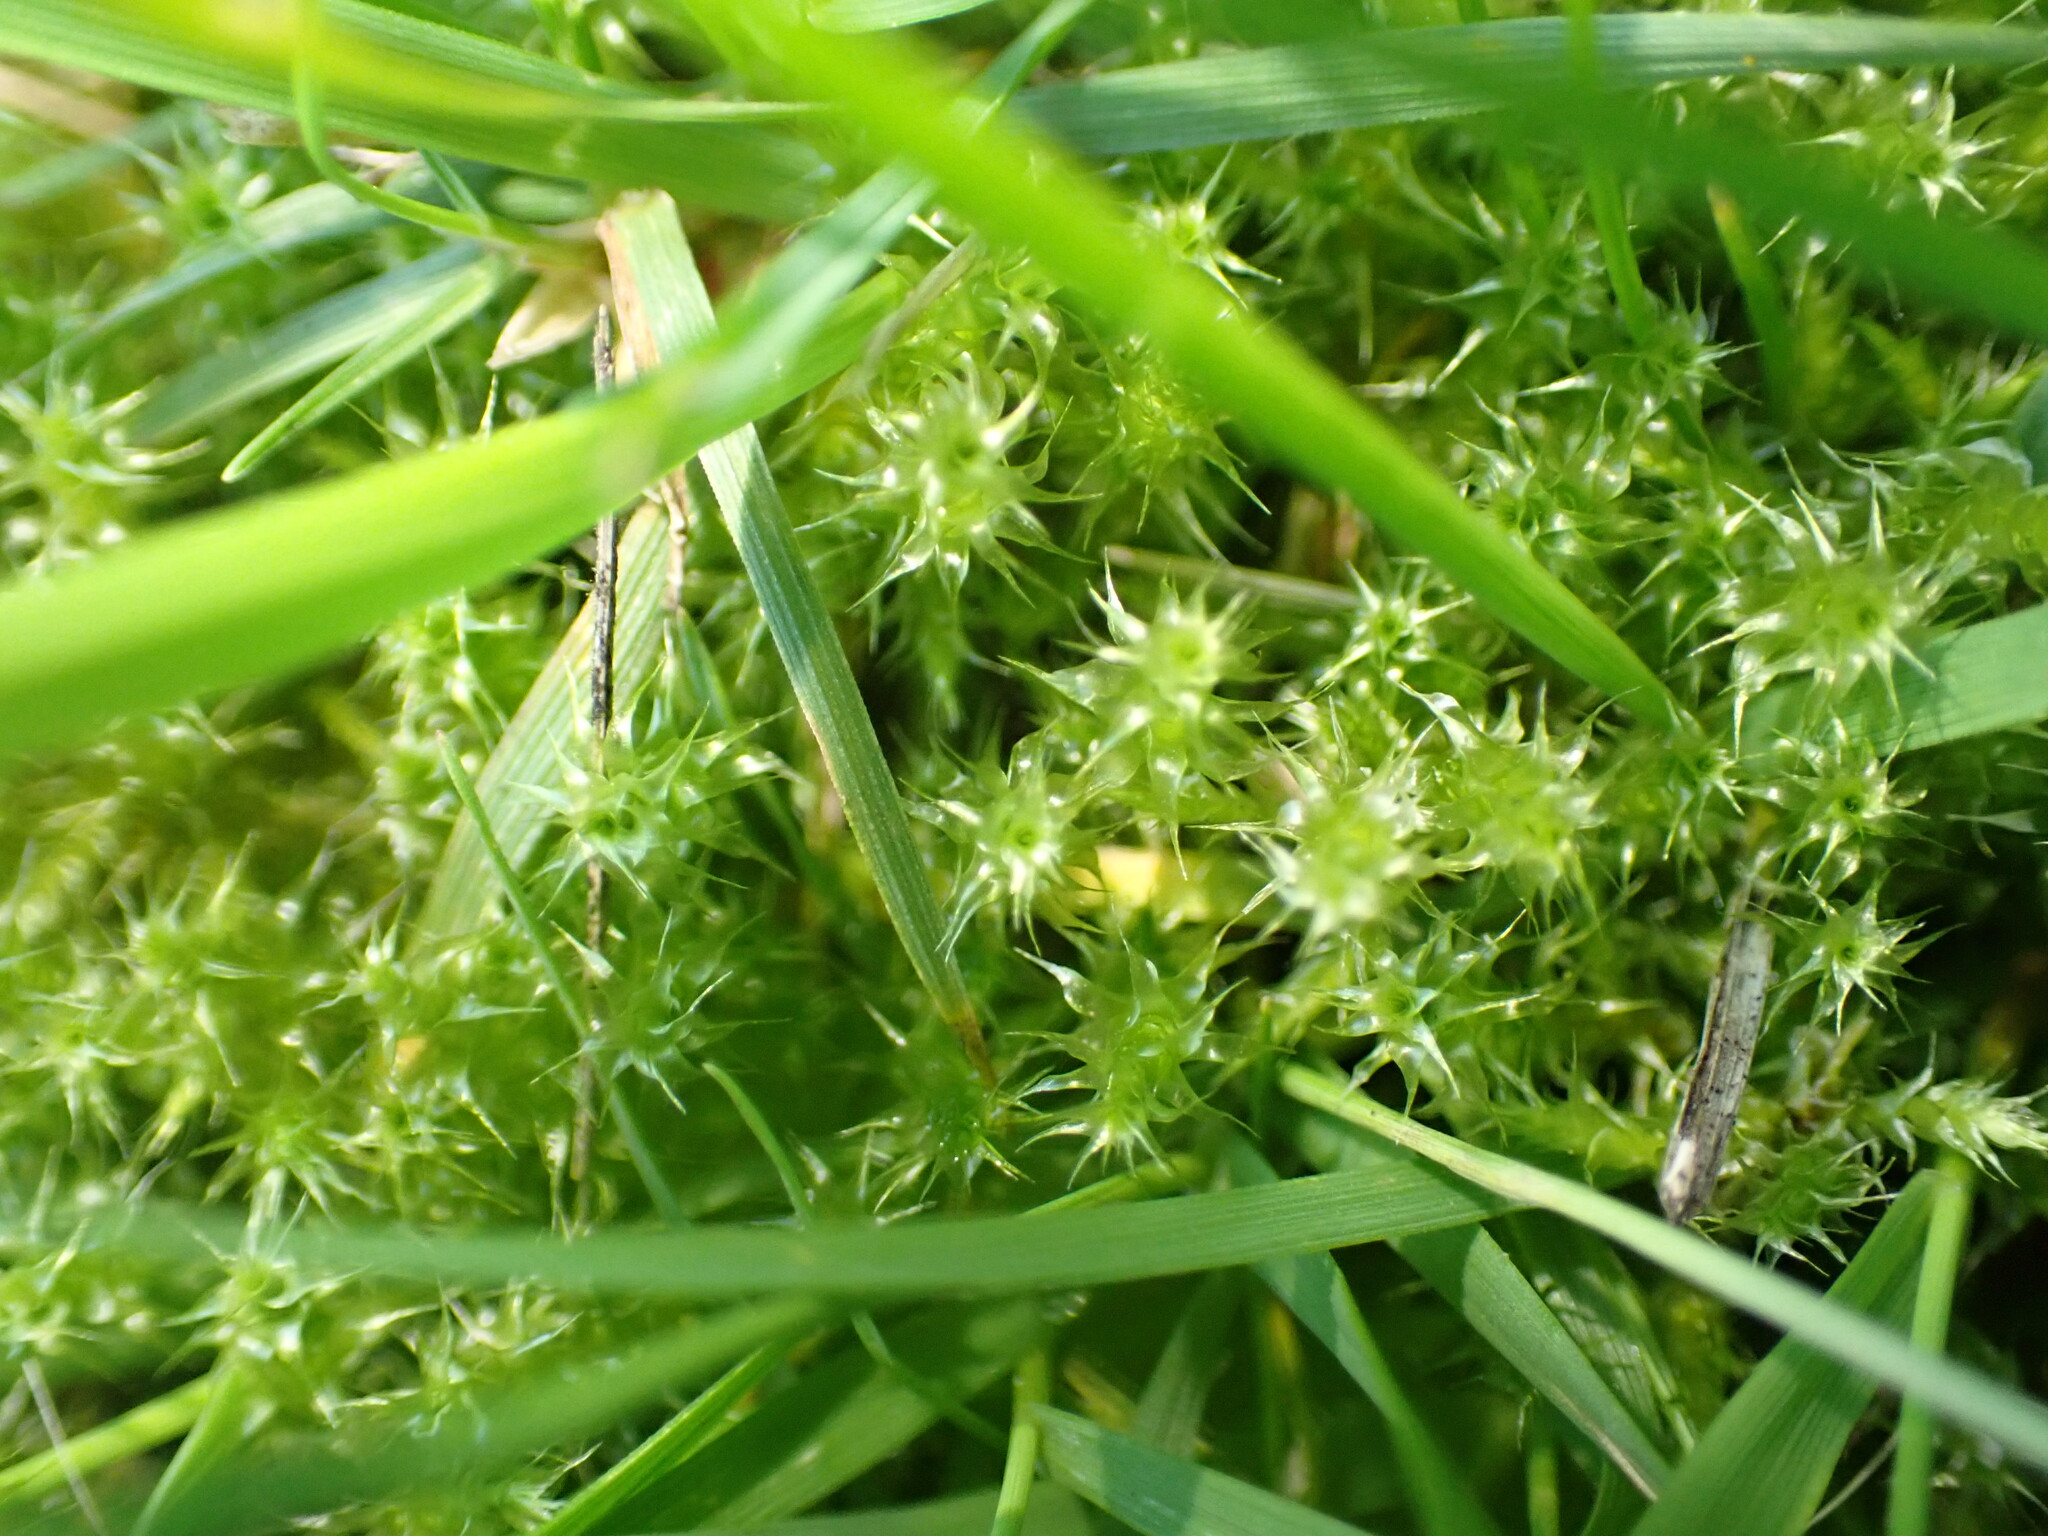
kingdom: Plantae
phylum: Bryophyta
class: Bryopsida
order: Hypnales
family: Hylocomiaceae
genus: Rhytidiadelphus
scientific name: Rhytidiadelphus squarrosus
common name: Springy turf-moss
